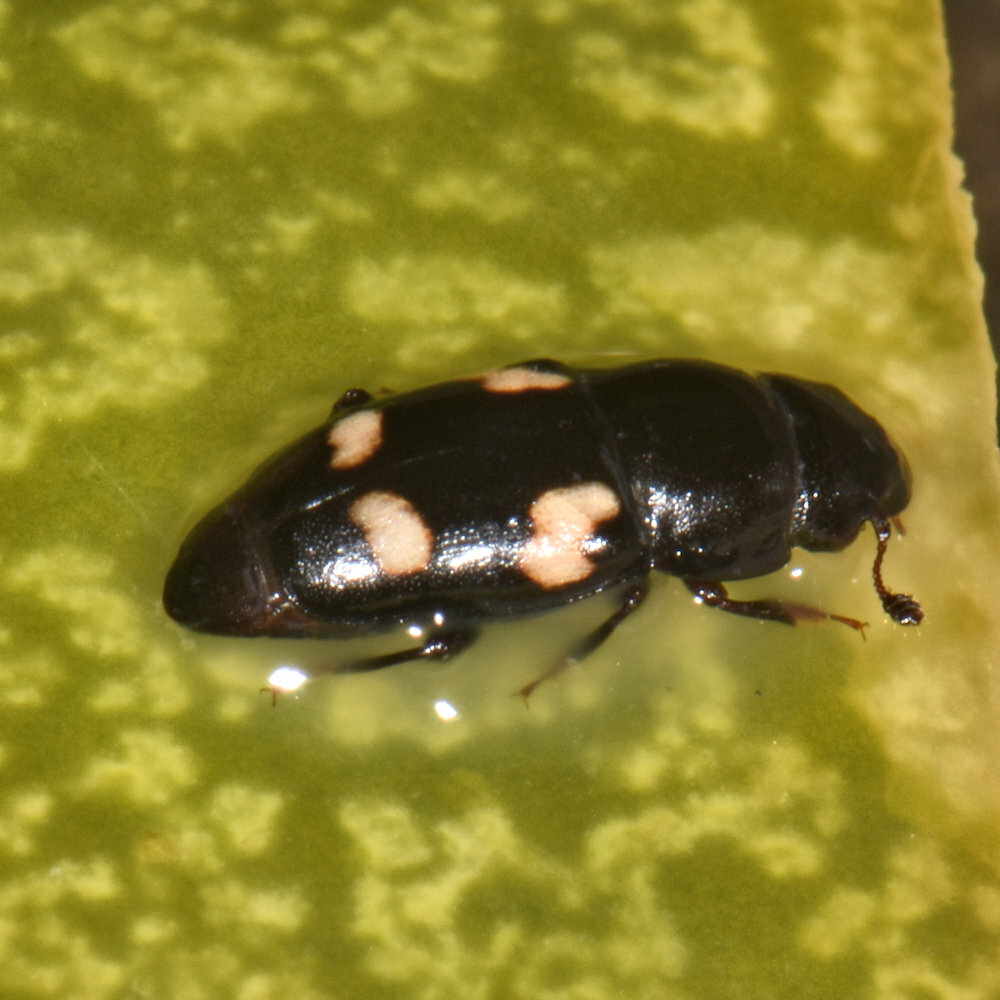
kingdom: Animalia
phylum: Arthropoda
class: Insecta
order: Coleoptera
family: Nitidulidae
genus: Glischrochilus
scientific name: Glischrochilus quadrisignatus
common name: Picnic beetle
